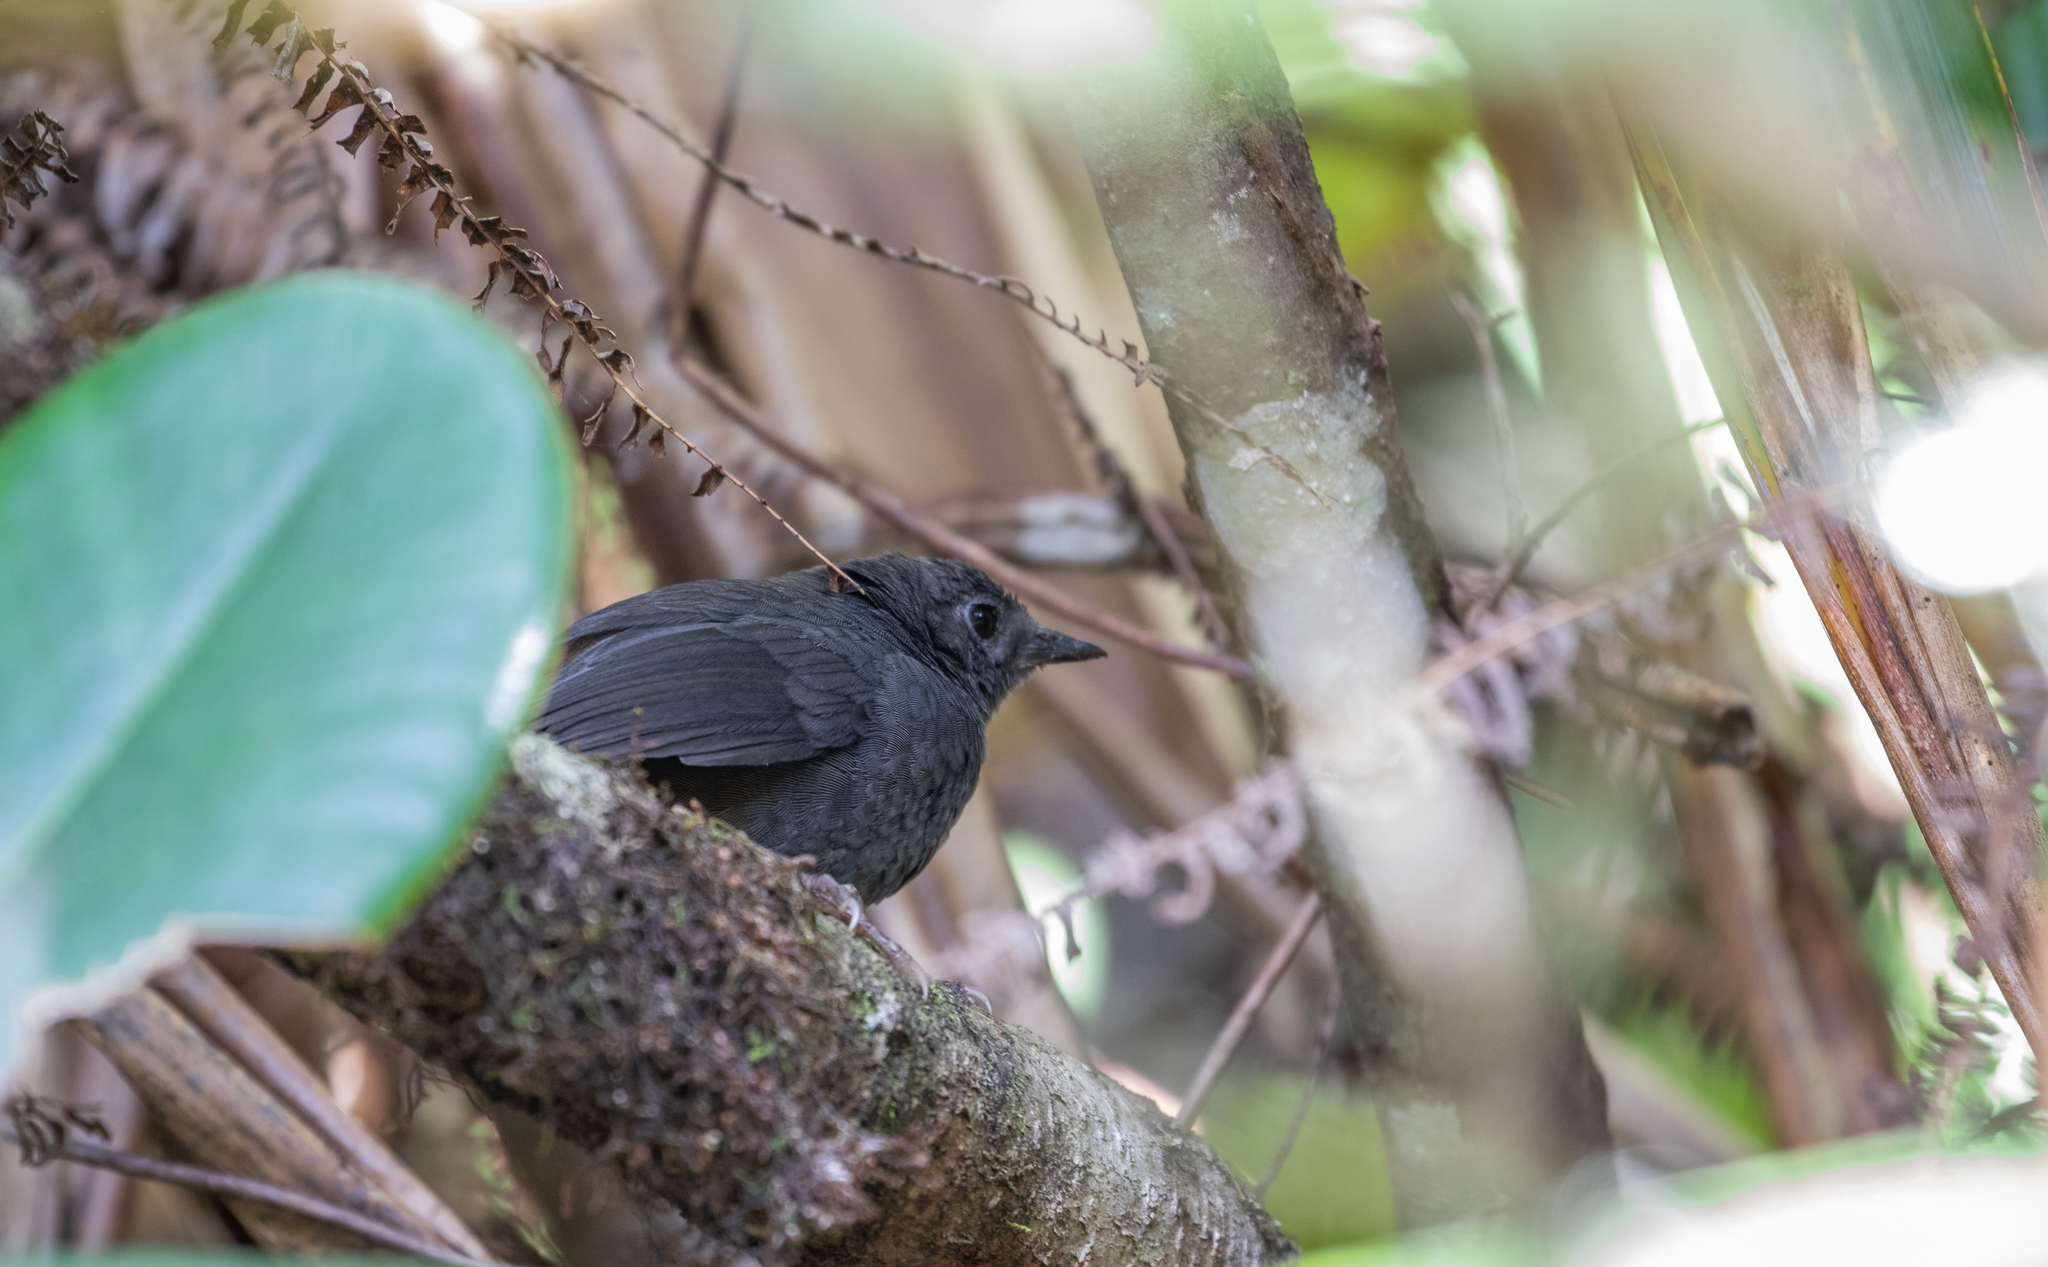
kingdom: Animalia
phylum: Chordata
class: Aves
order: Passeriformes
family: Rhinocryptidae
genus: Scytalopus
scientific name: Scytalopus latebricola
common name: Brown-rumped tapaculo
